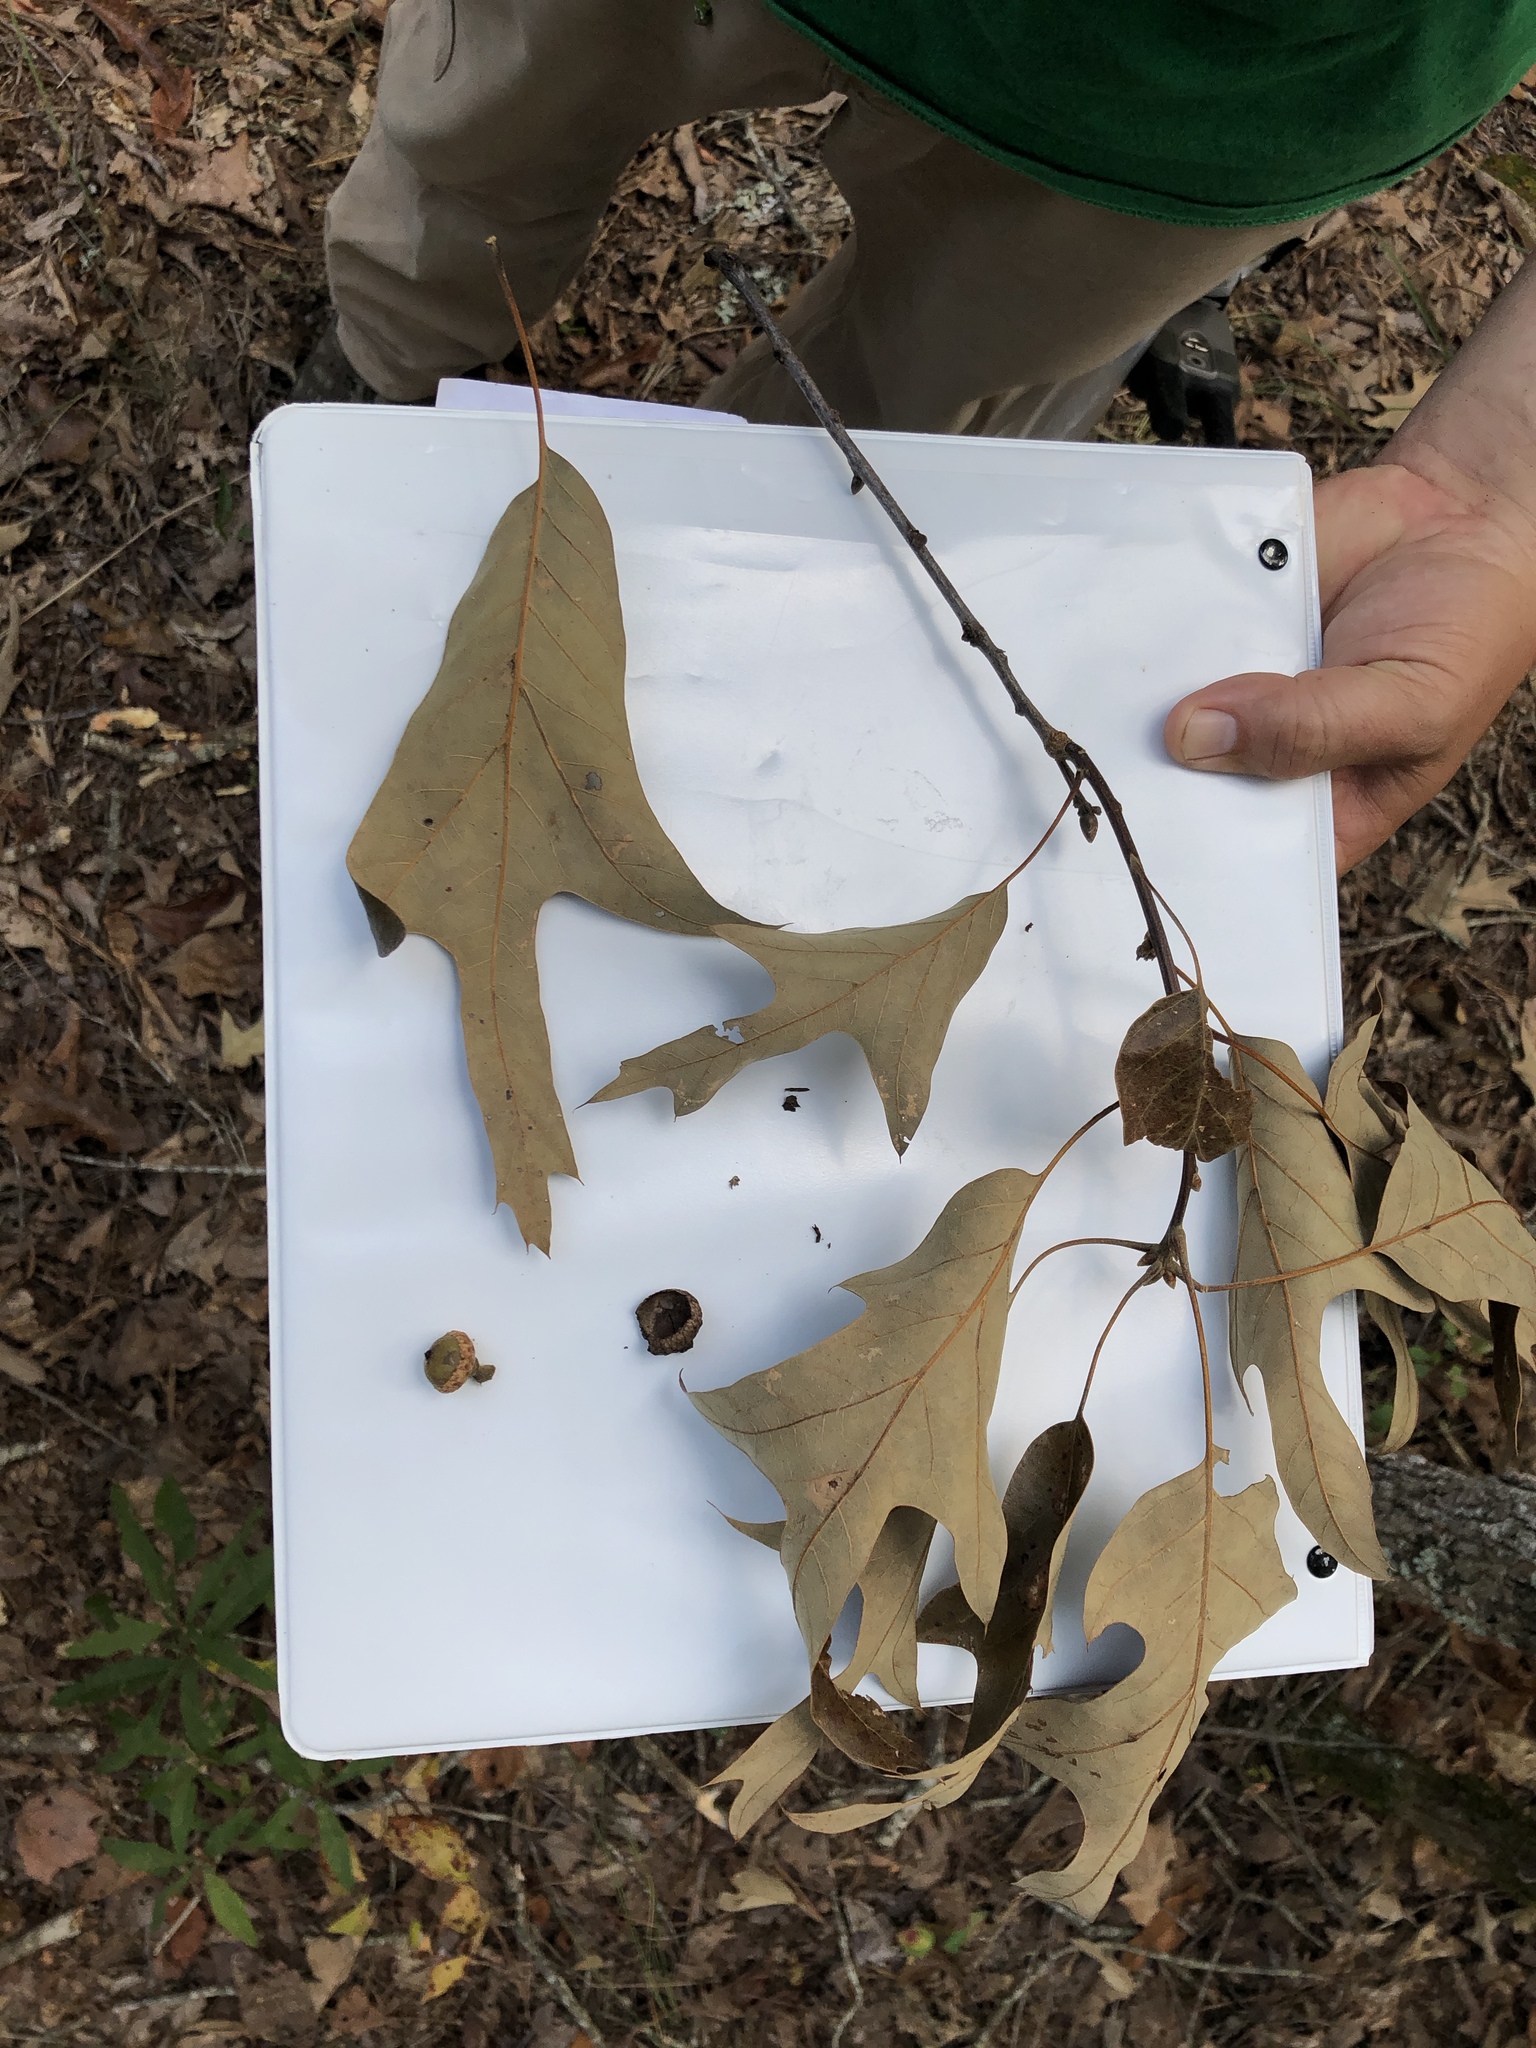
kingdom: Plantae
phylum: Tracheophyta
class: Magnoliopsida
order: Fagales
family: Fagaceae
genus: Quercus
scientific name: Quercus falcata
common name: Southern red oak
